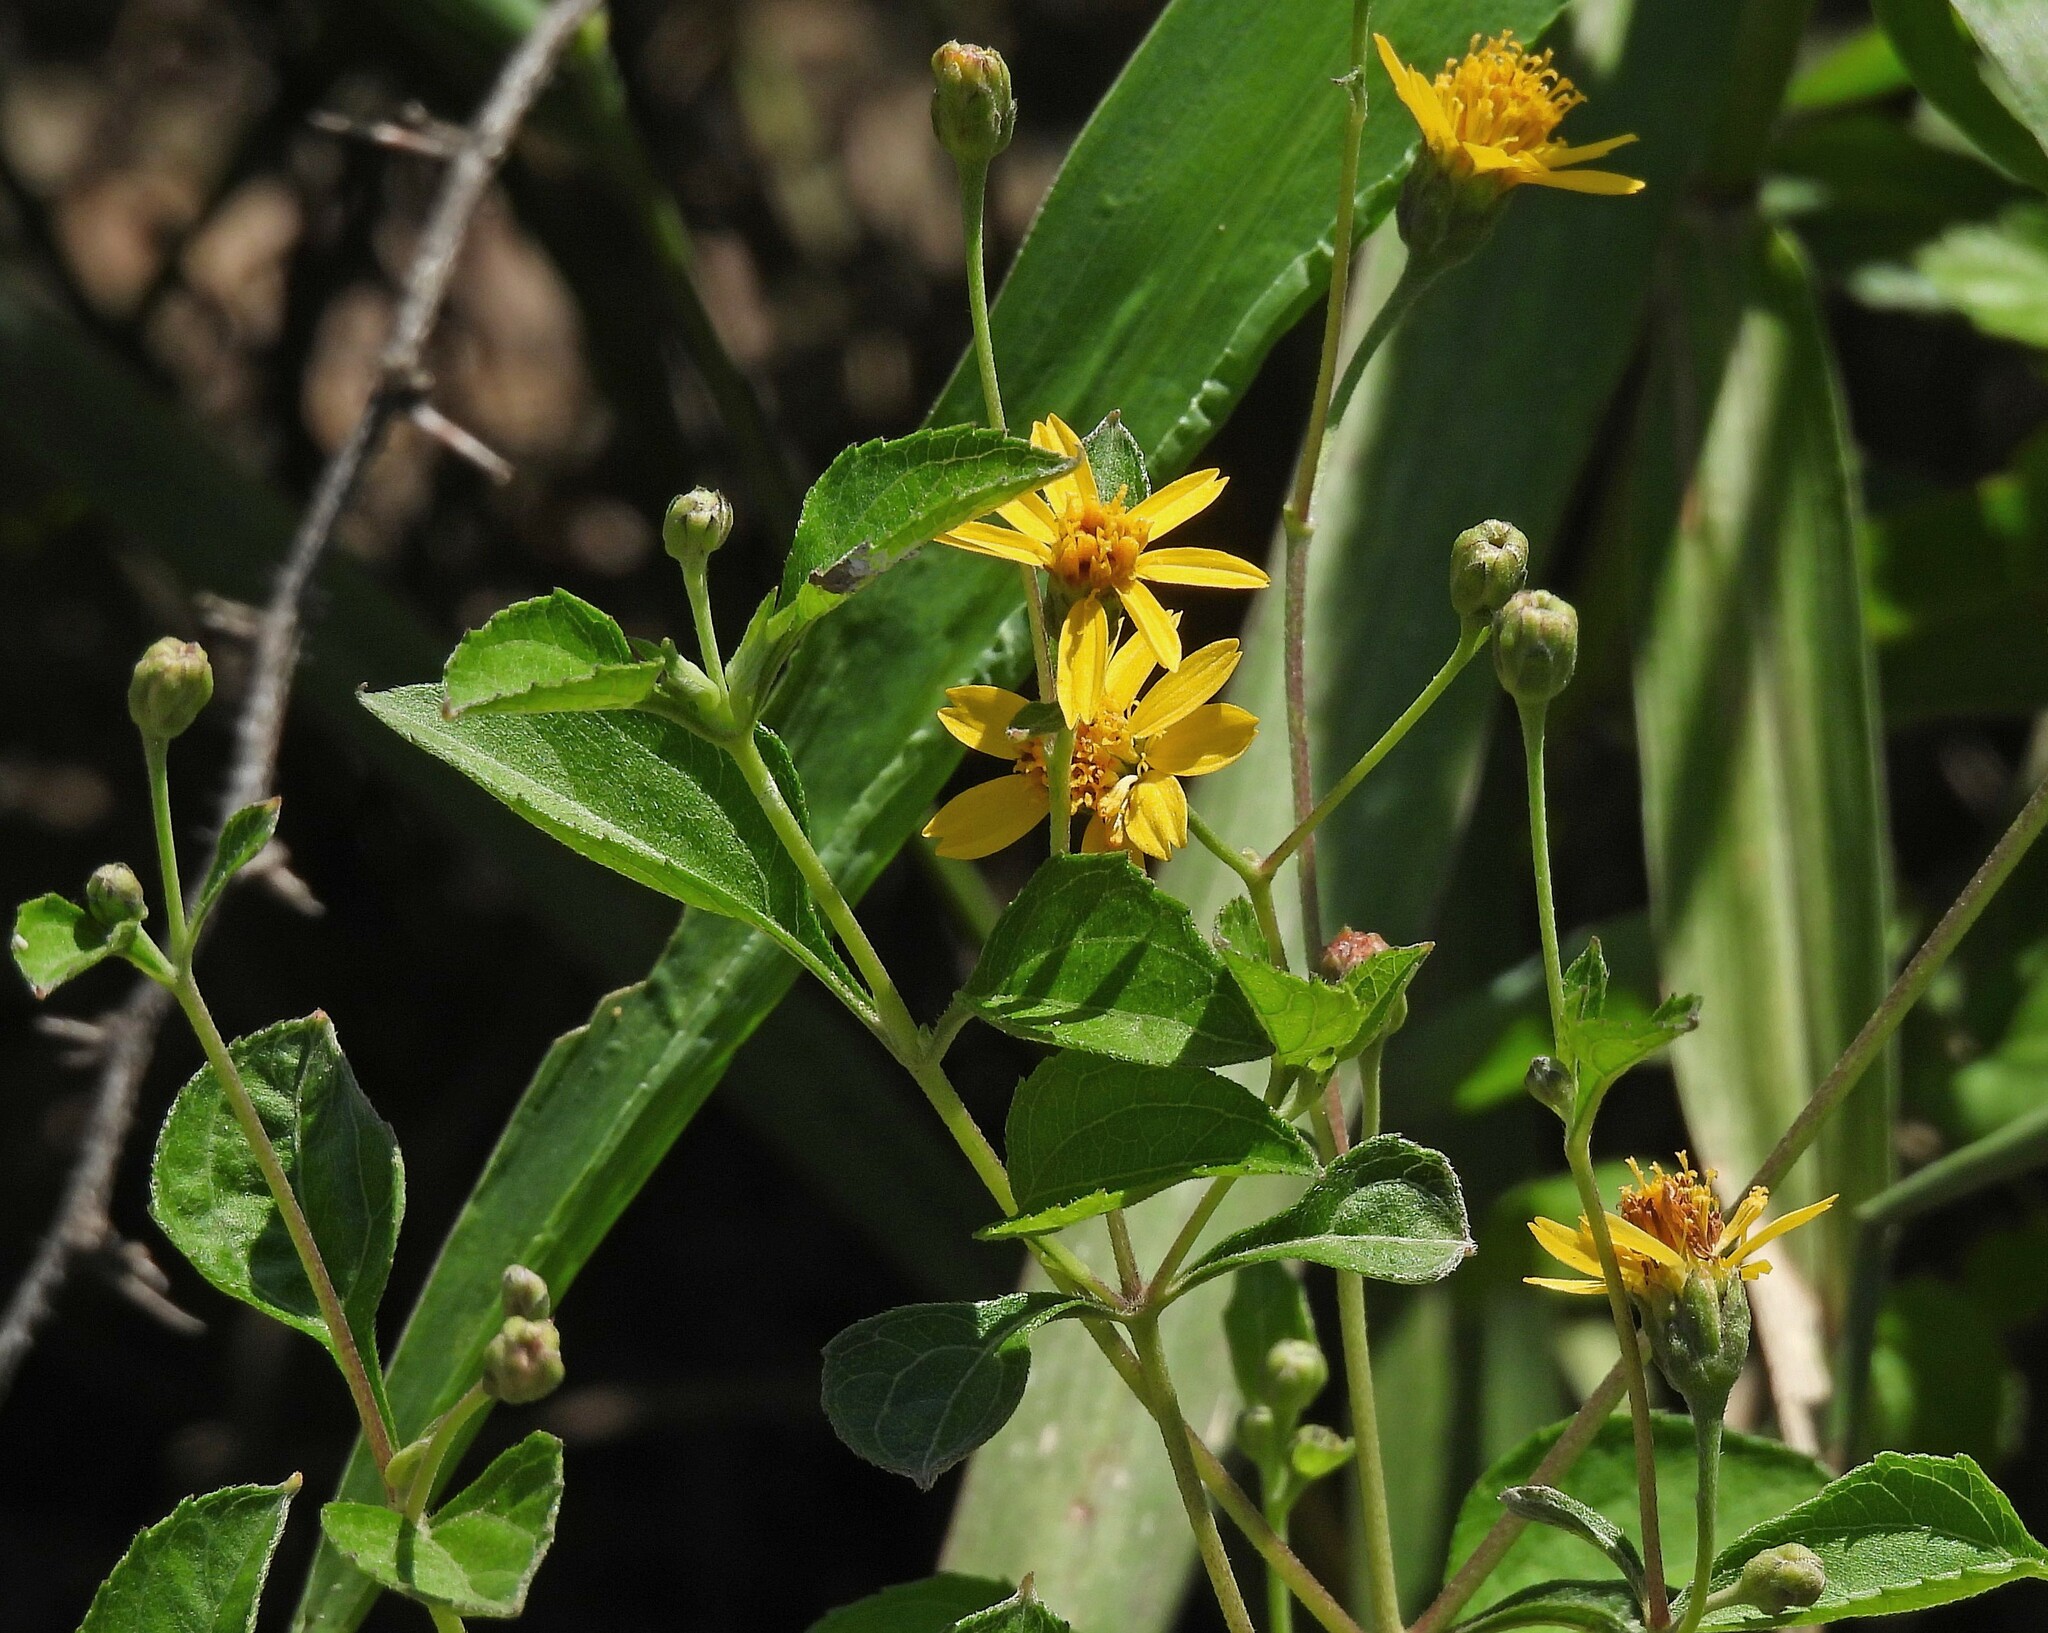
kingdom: Plantae
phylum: Tracheophyta
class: Magnoliopsida
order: Asterales
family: Asteraceae
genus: Zexmenia
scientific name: Zexmenia brachylepis
